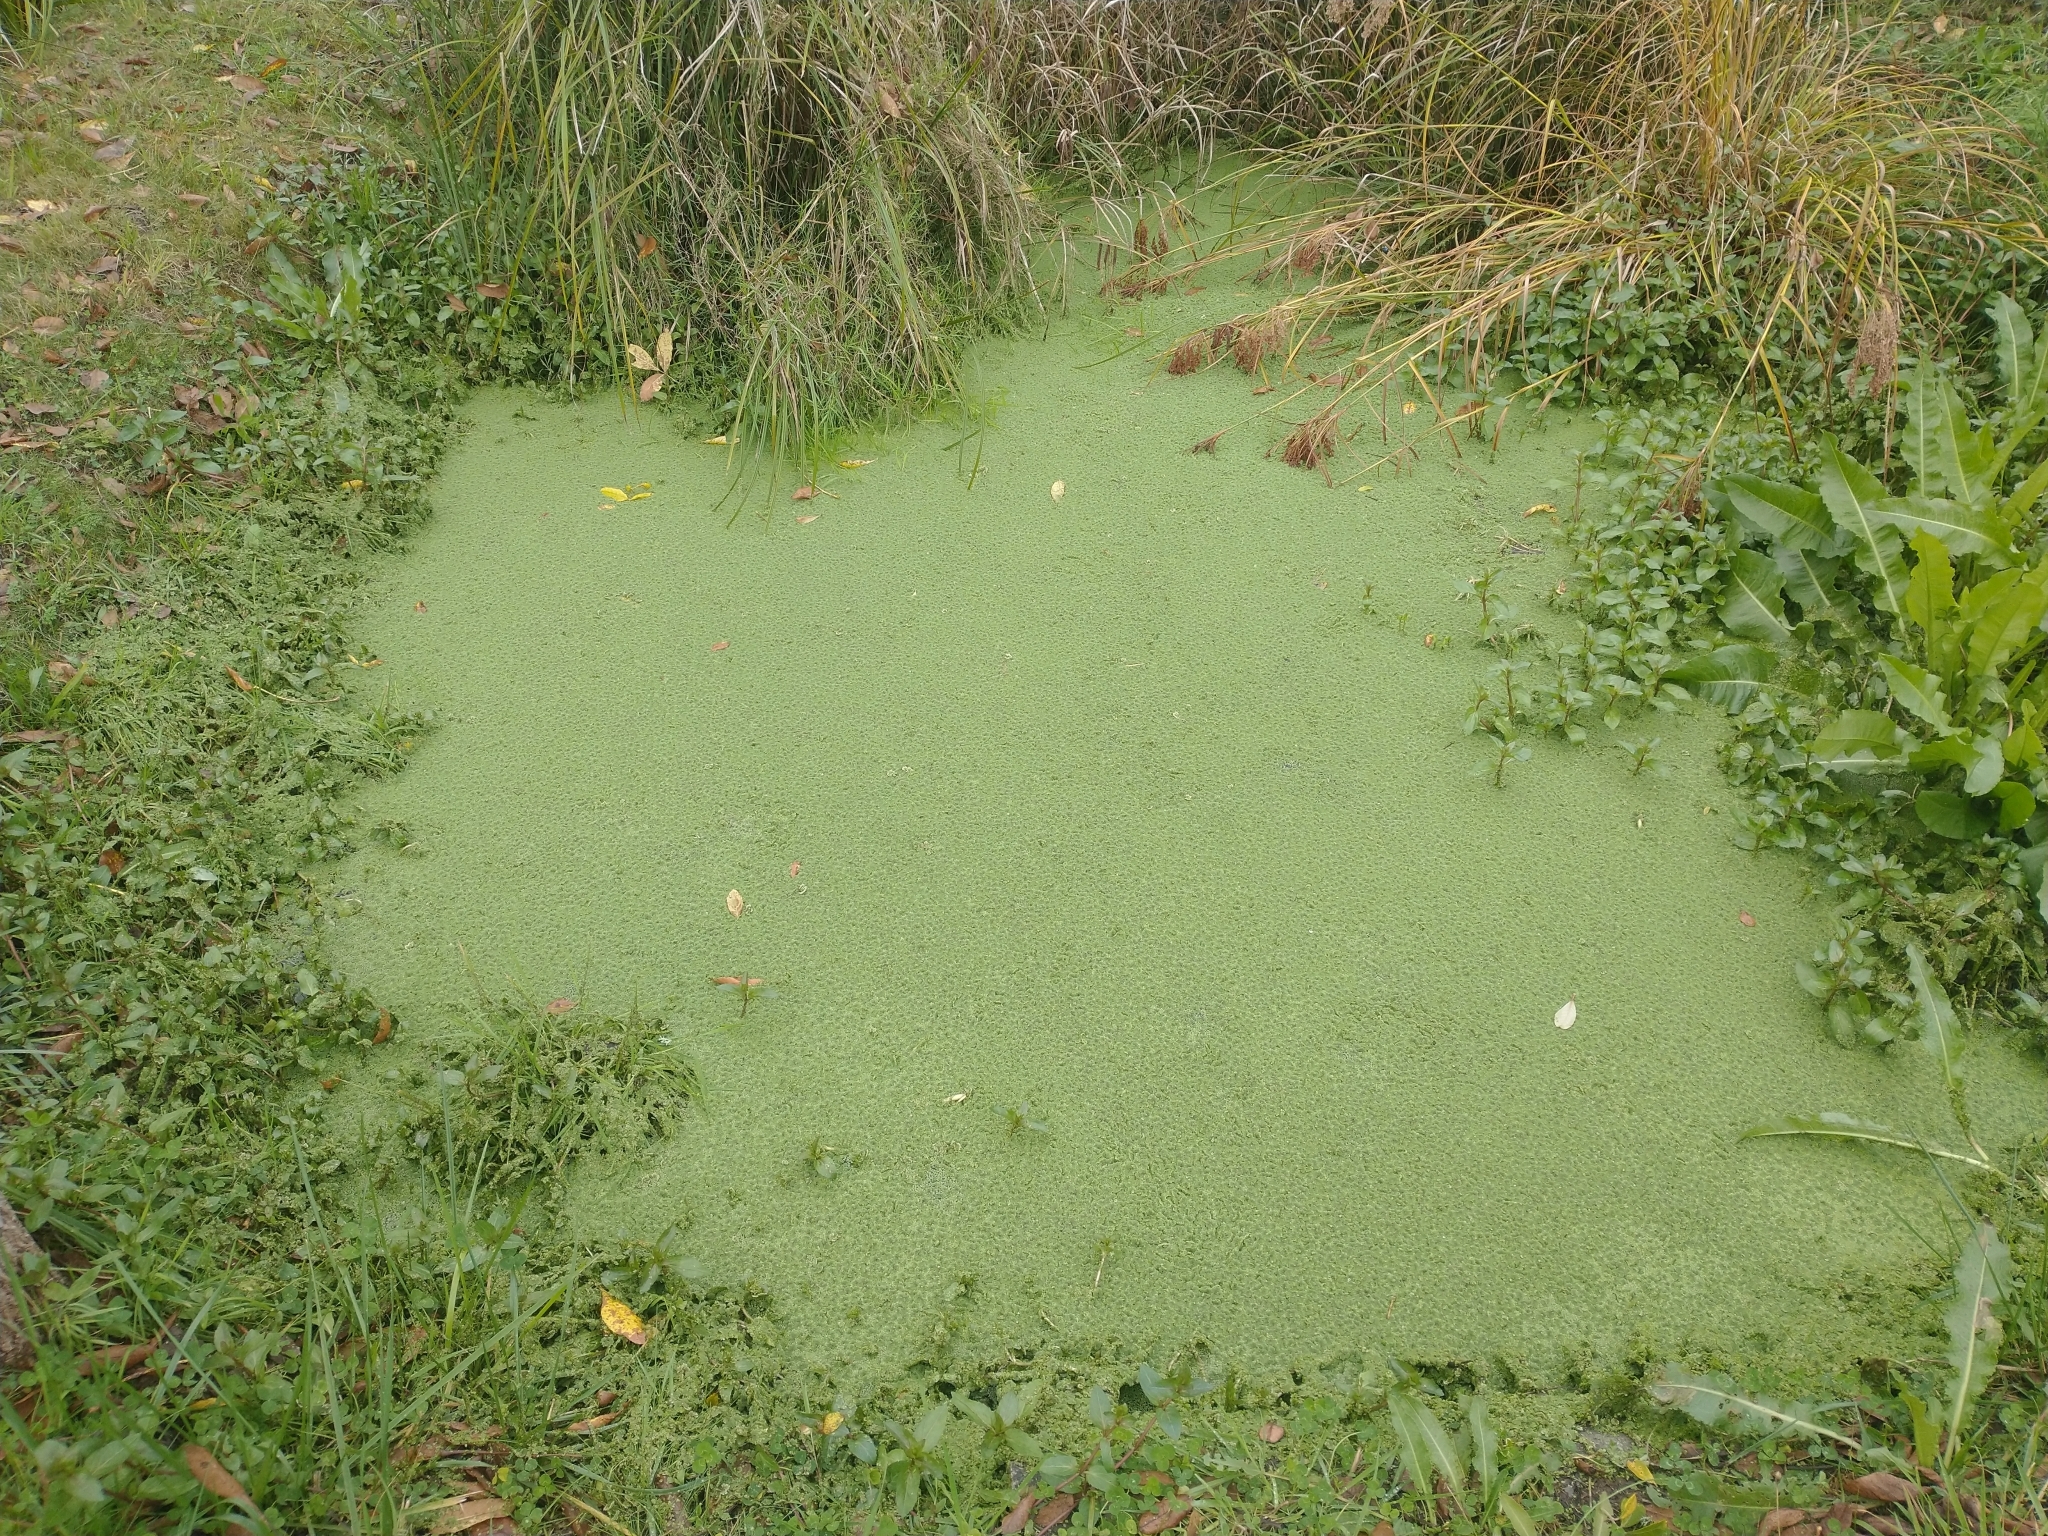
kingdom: Plantae
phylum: Tracheophyta
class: Polypodiopsida
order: Salviniales
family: Salviniaceae
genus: Azolla
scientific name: Azolla filiculoides
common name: Water fern
